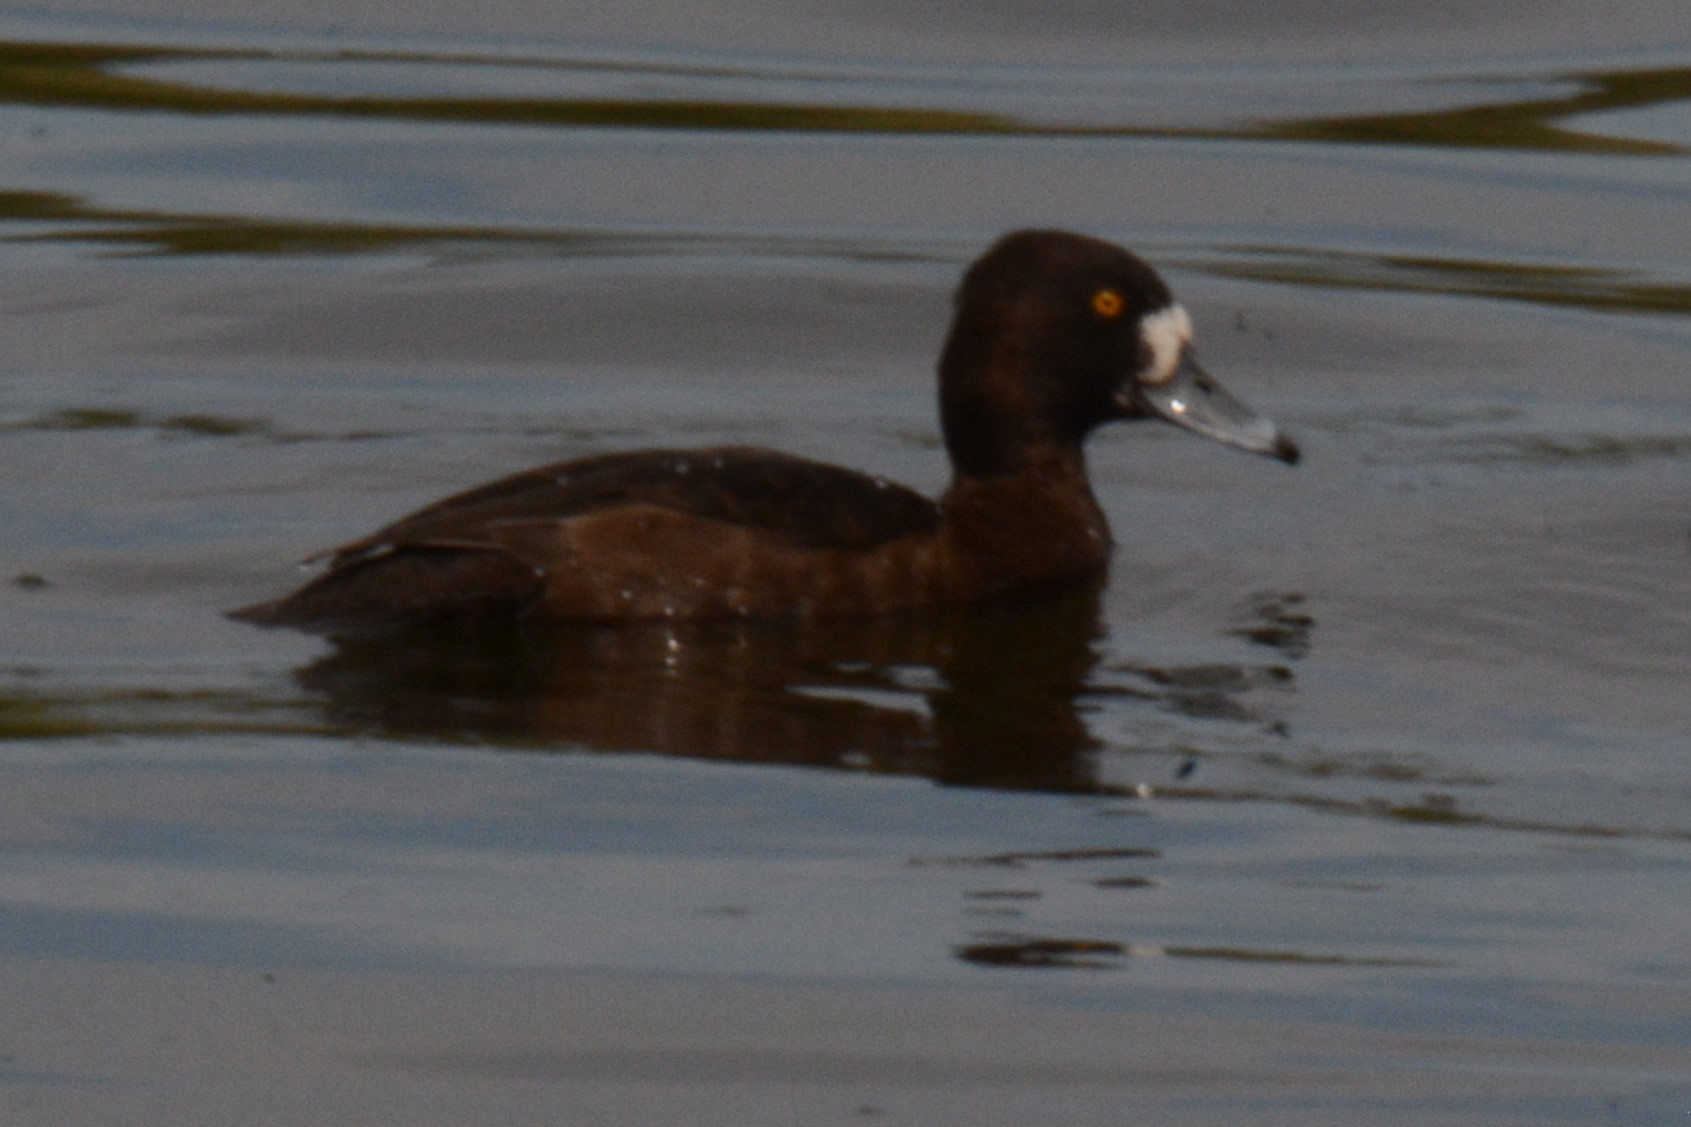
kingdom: Animalia
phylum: Chordata
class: Aves
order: Anseriformes
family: Anatidae
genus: Aythya
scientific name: Aythya fuligula
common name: Tufted duck
